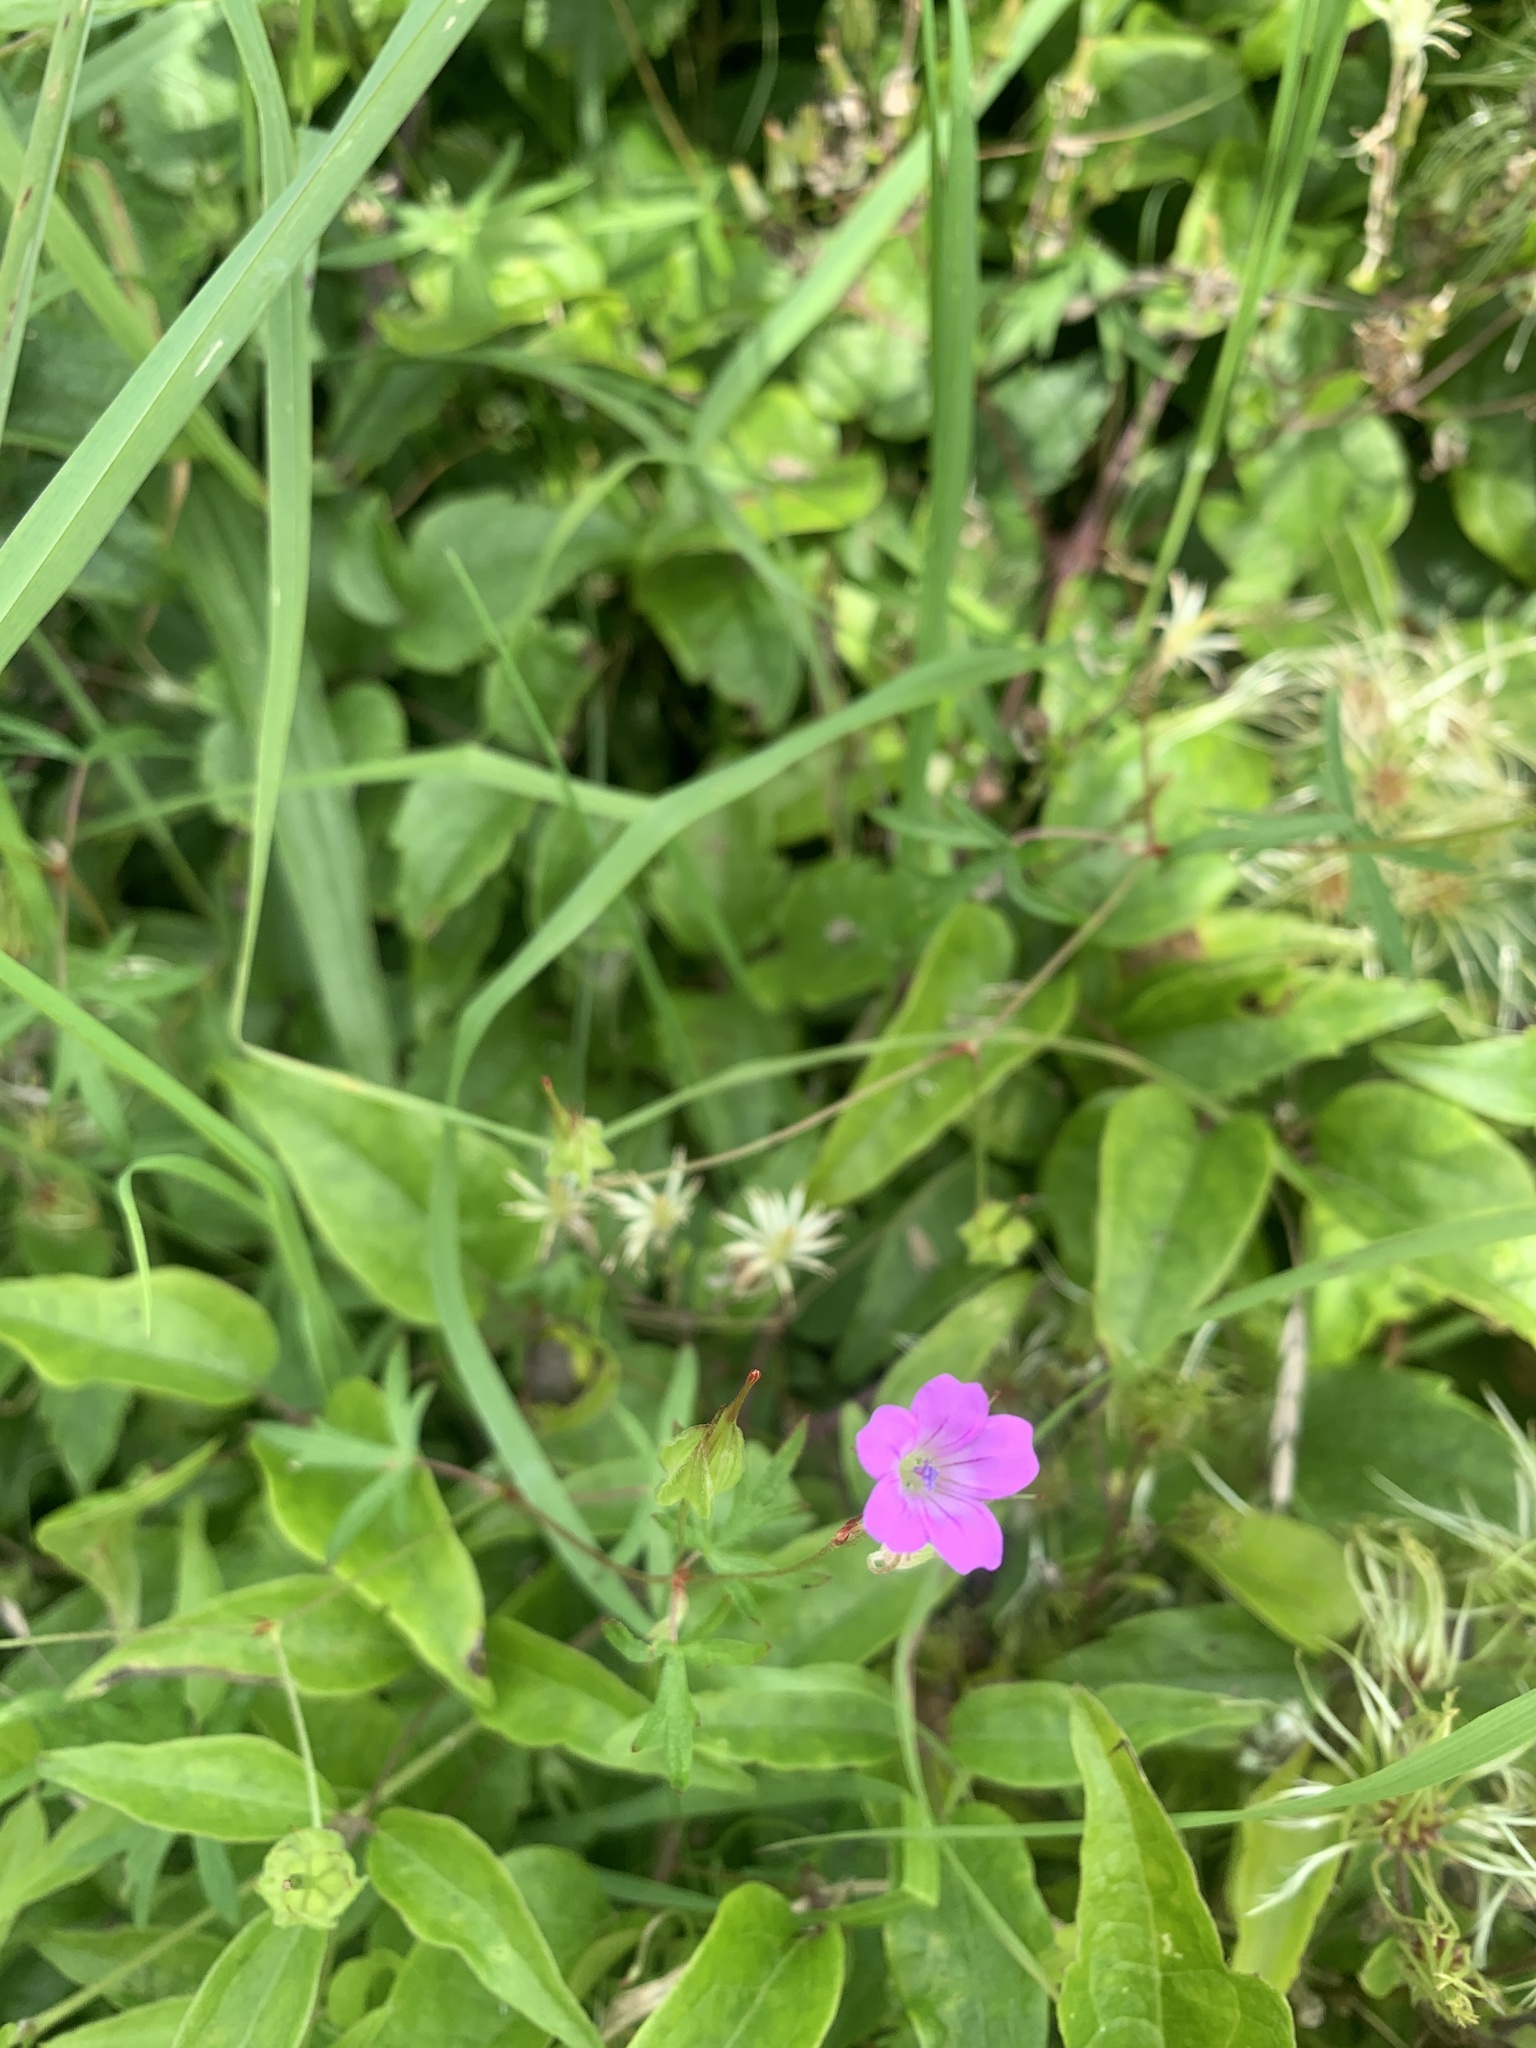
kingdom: Plantae
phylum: Tracheophyta
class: Magnoliopsida
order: Geraniales
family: Geraniaceae
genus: Geranium
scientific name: Geranium dissectum
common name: Cut-leaved crane's-bill
